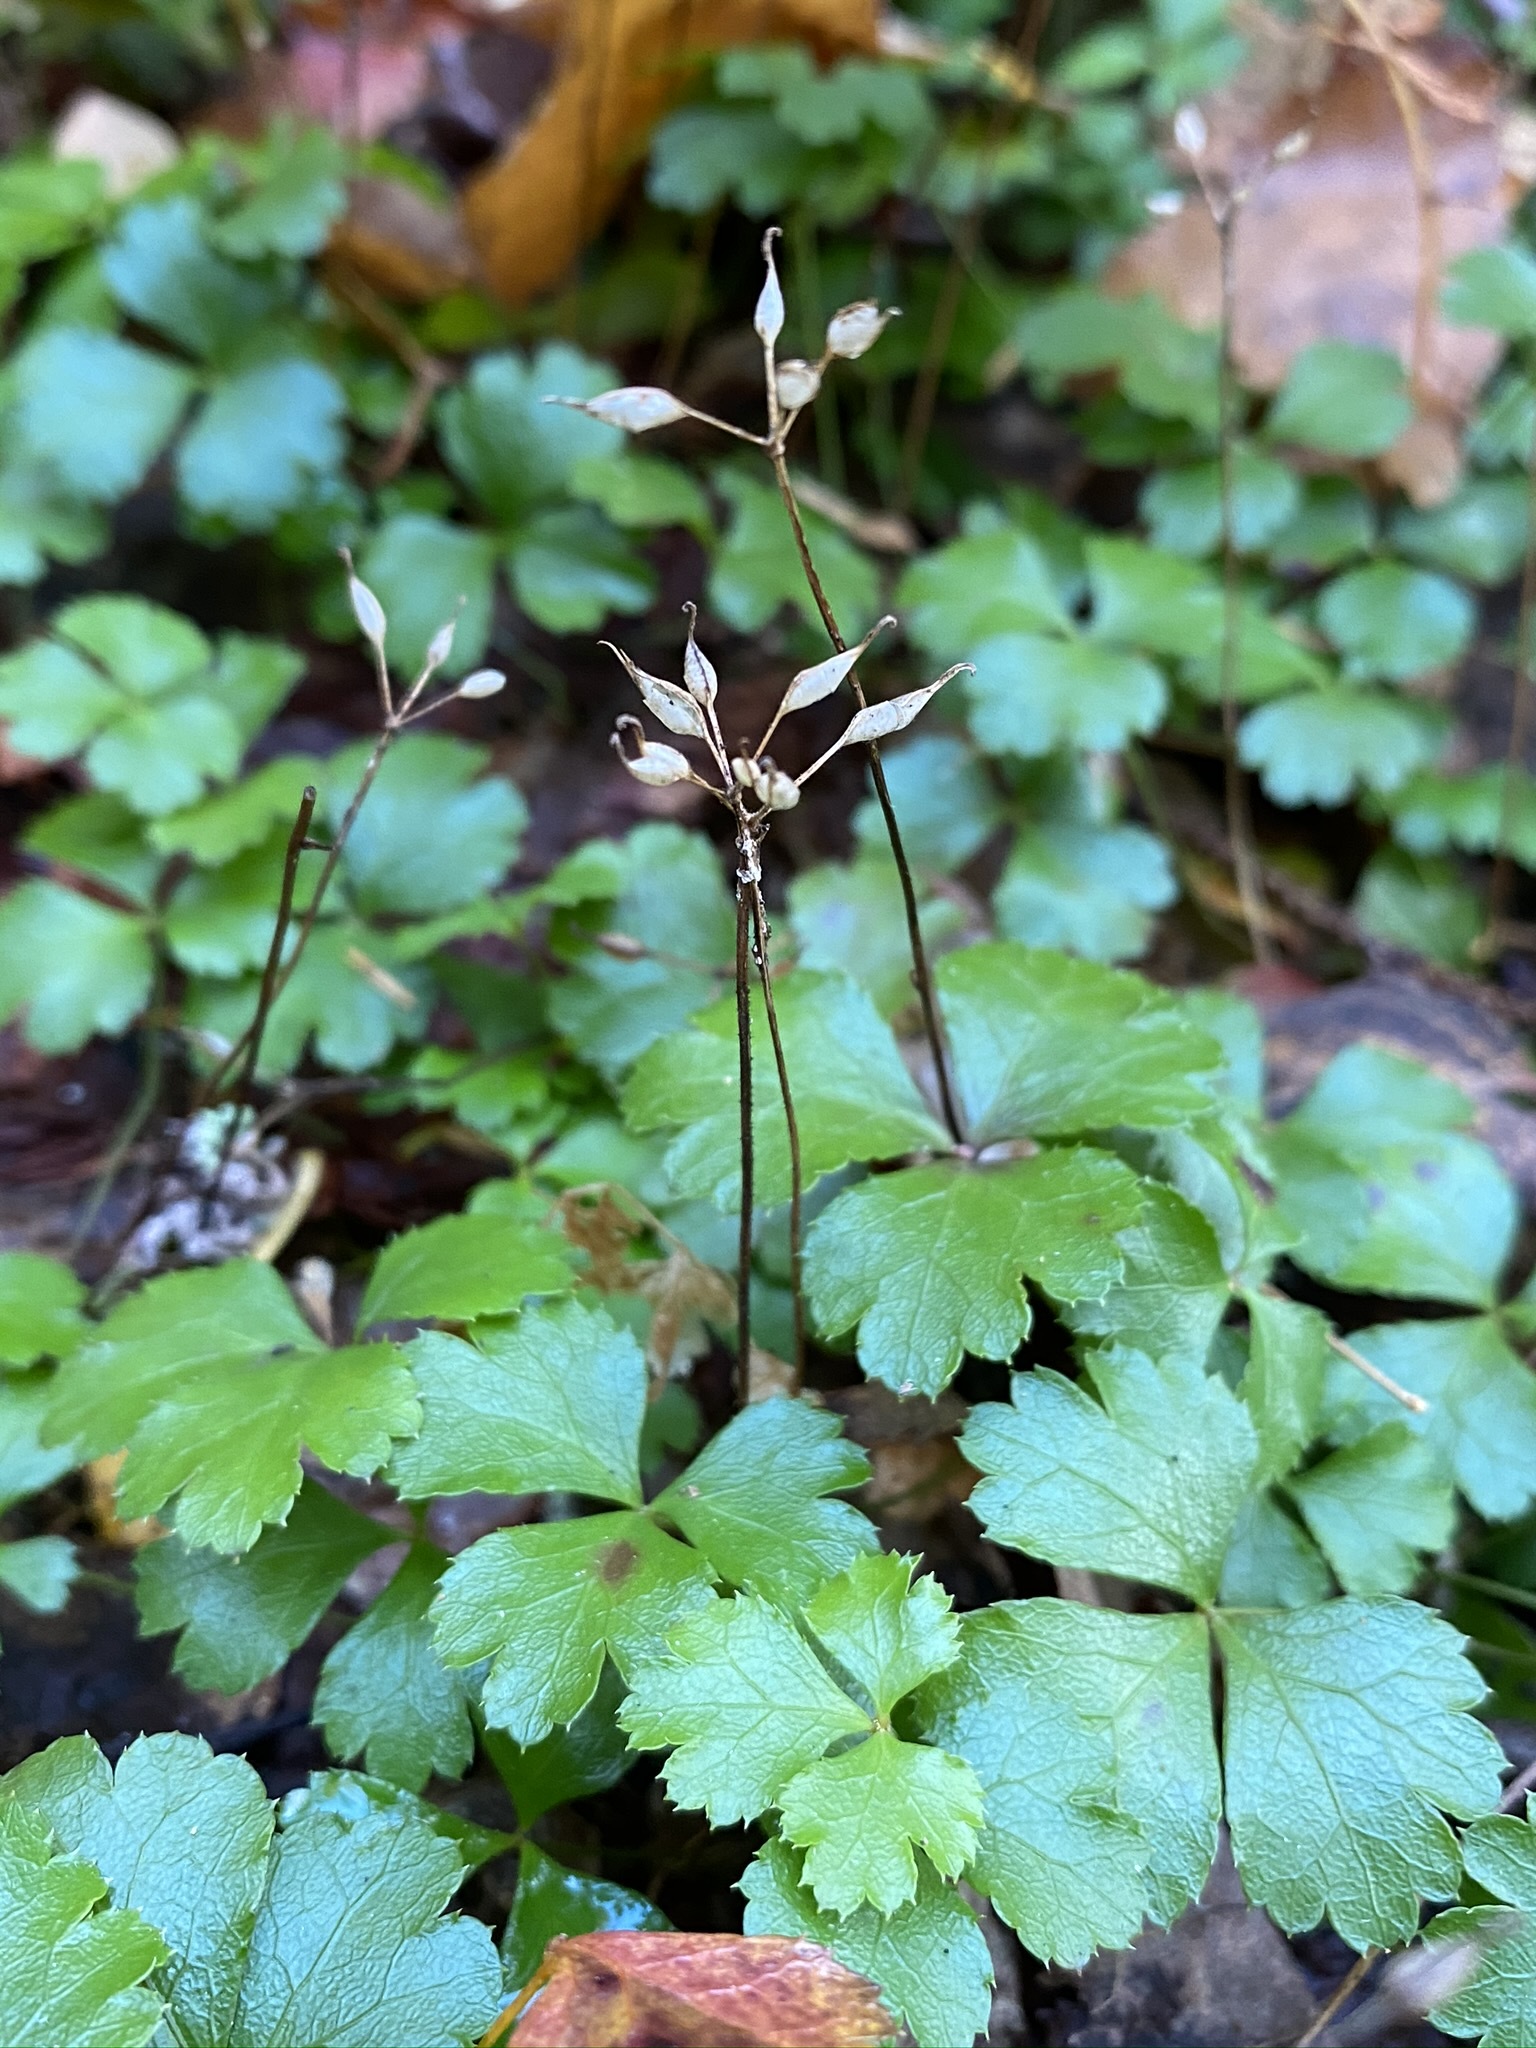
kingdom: Plantae
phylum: Tracheophyta
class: Magnoliopsida
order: Ranunculales
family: Ranunculaceae
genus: Coptis
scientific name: Coptis trifolia
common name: Canker-root
